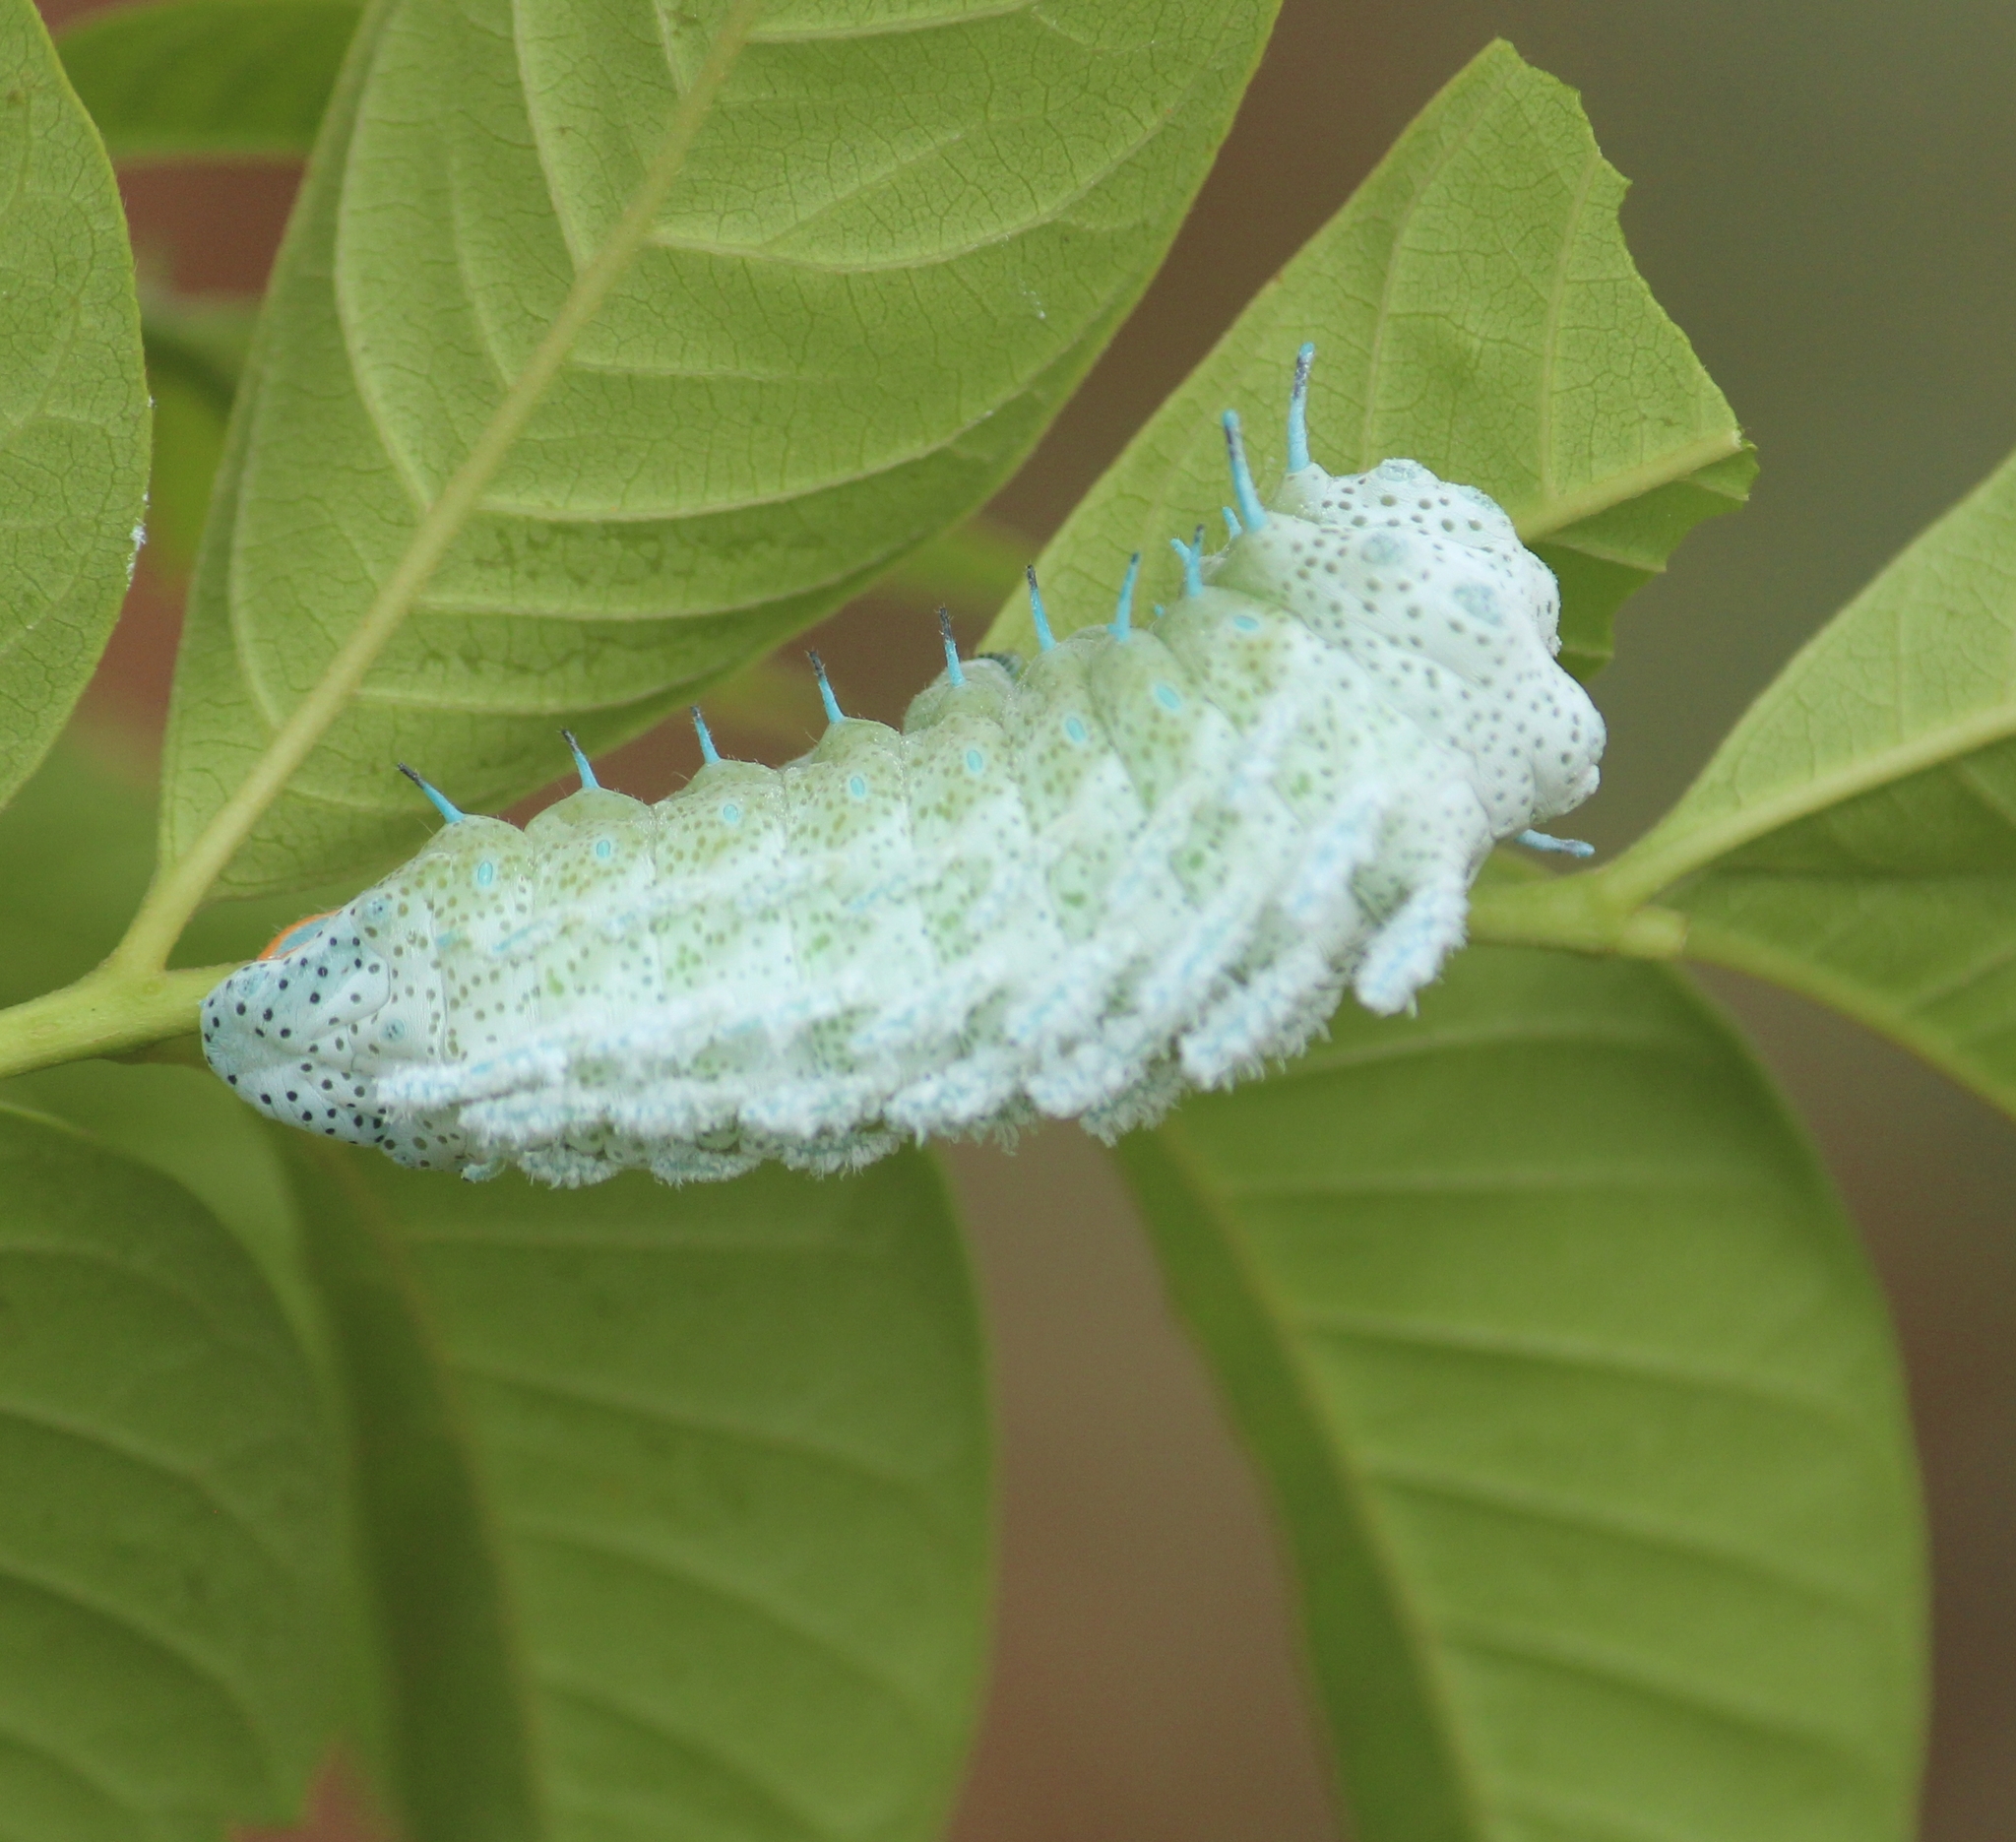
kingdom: Animalia
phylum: Arthropoda
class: Insecta
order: Lepidoptera
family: Saturniidae
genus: Attacus
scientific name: Attacus taprobanis
